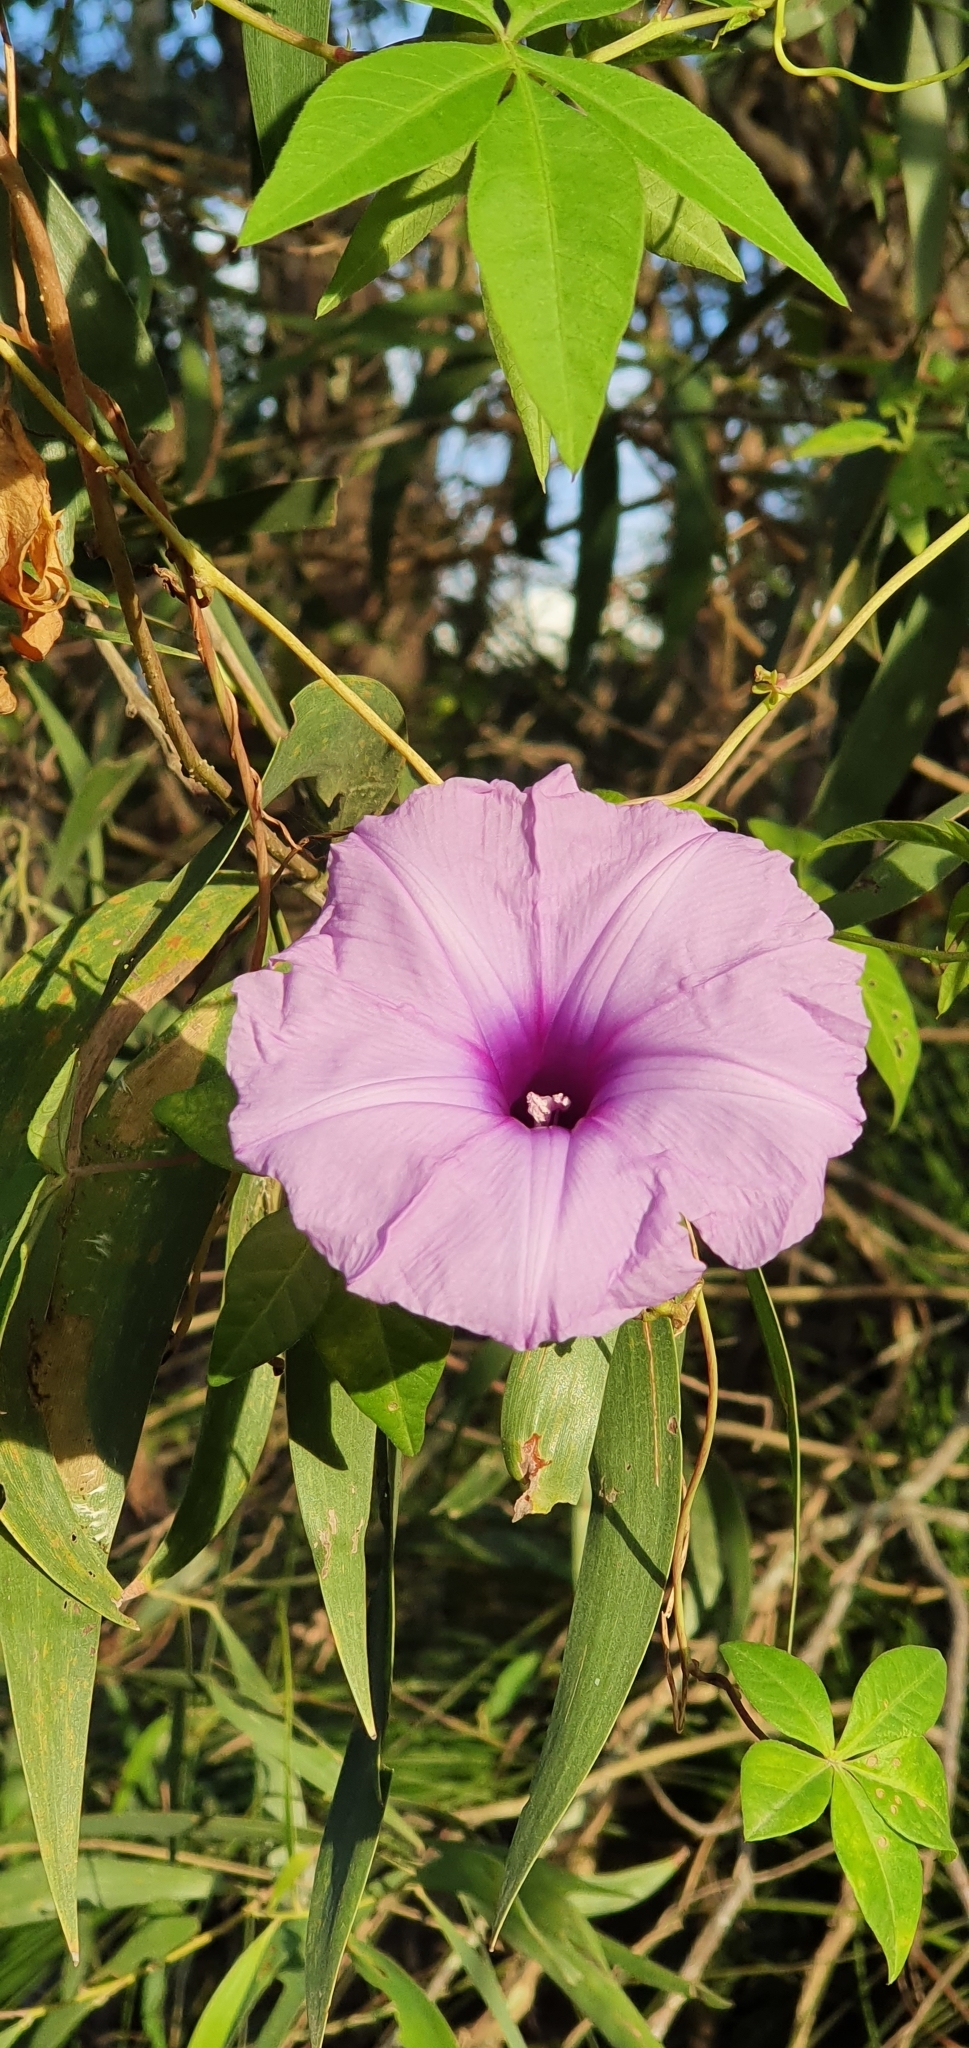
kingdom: Plantae
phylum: Tracheophyta
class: Magnoliopsida
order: Solanales
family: Convolvulaceae
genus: Ipomoea
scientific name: Ipomoea cairica
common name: Mile a minute vine
